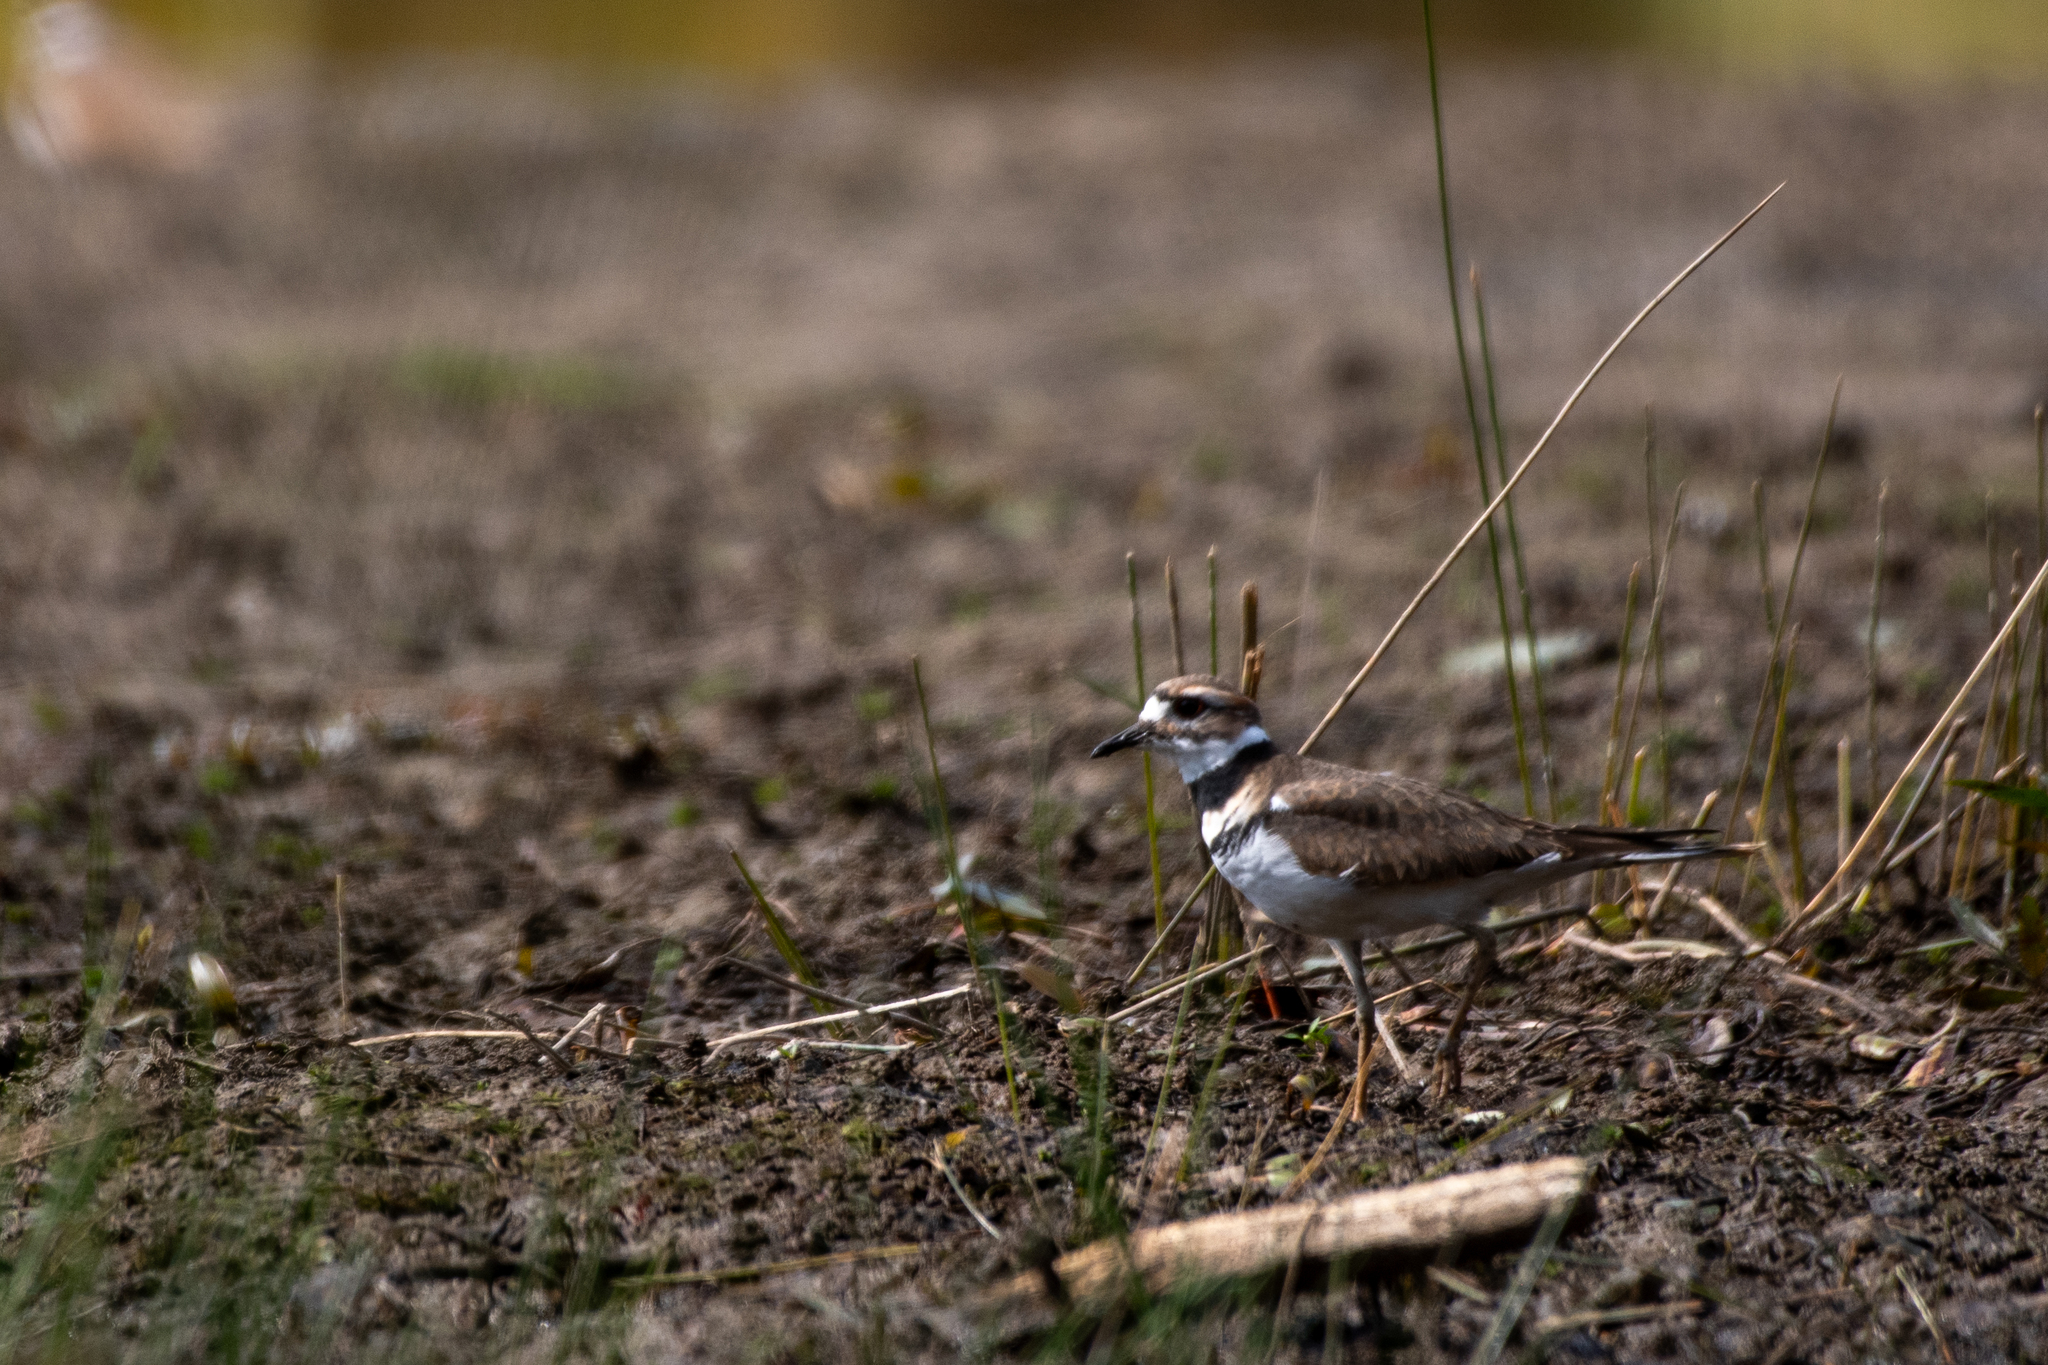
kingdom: Animalia
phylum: Chordata
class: Aves
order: Charadriiformes
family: Charadriidae
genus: Charadrius
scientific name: Charadrius vociferus
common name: Killdeer
